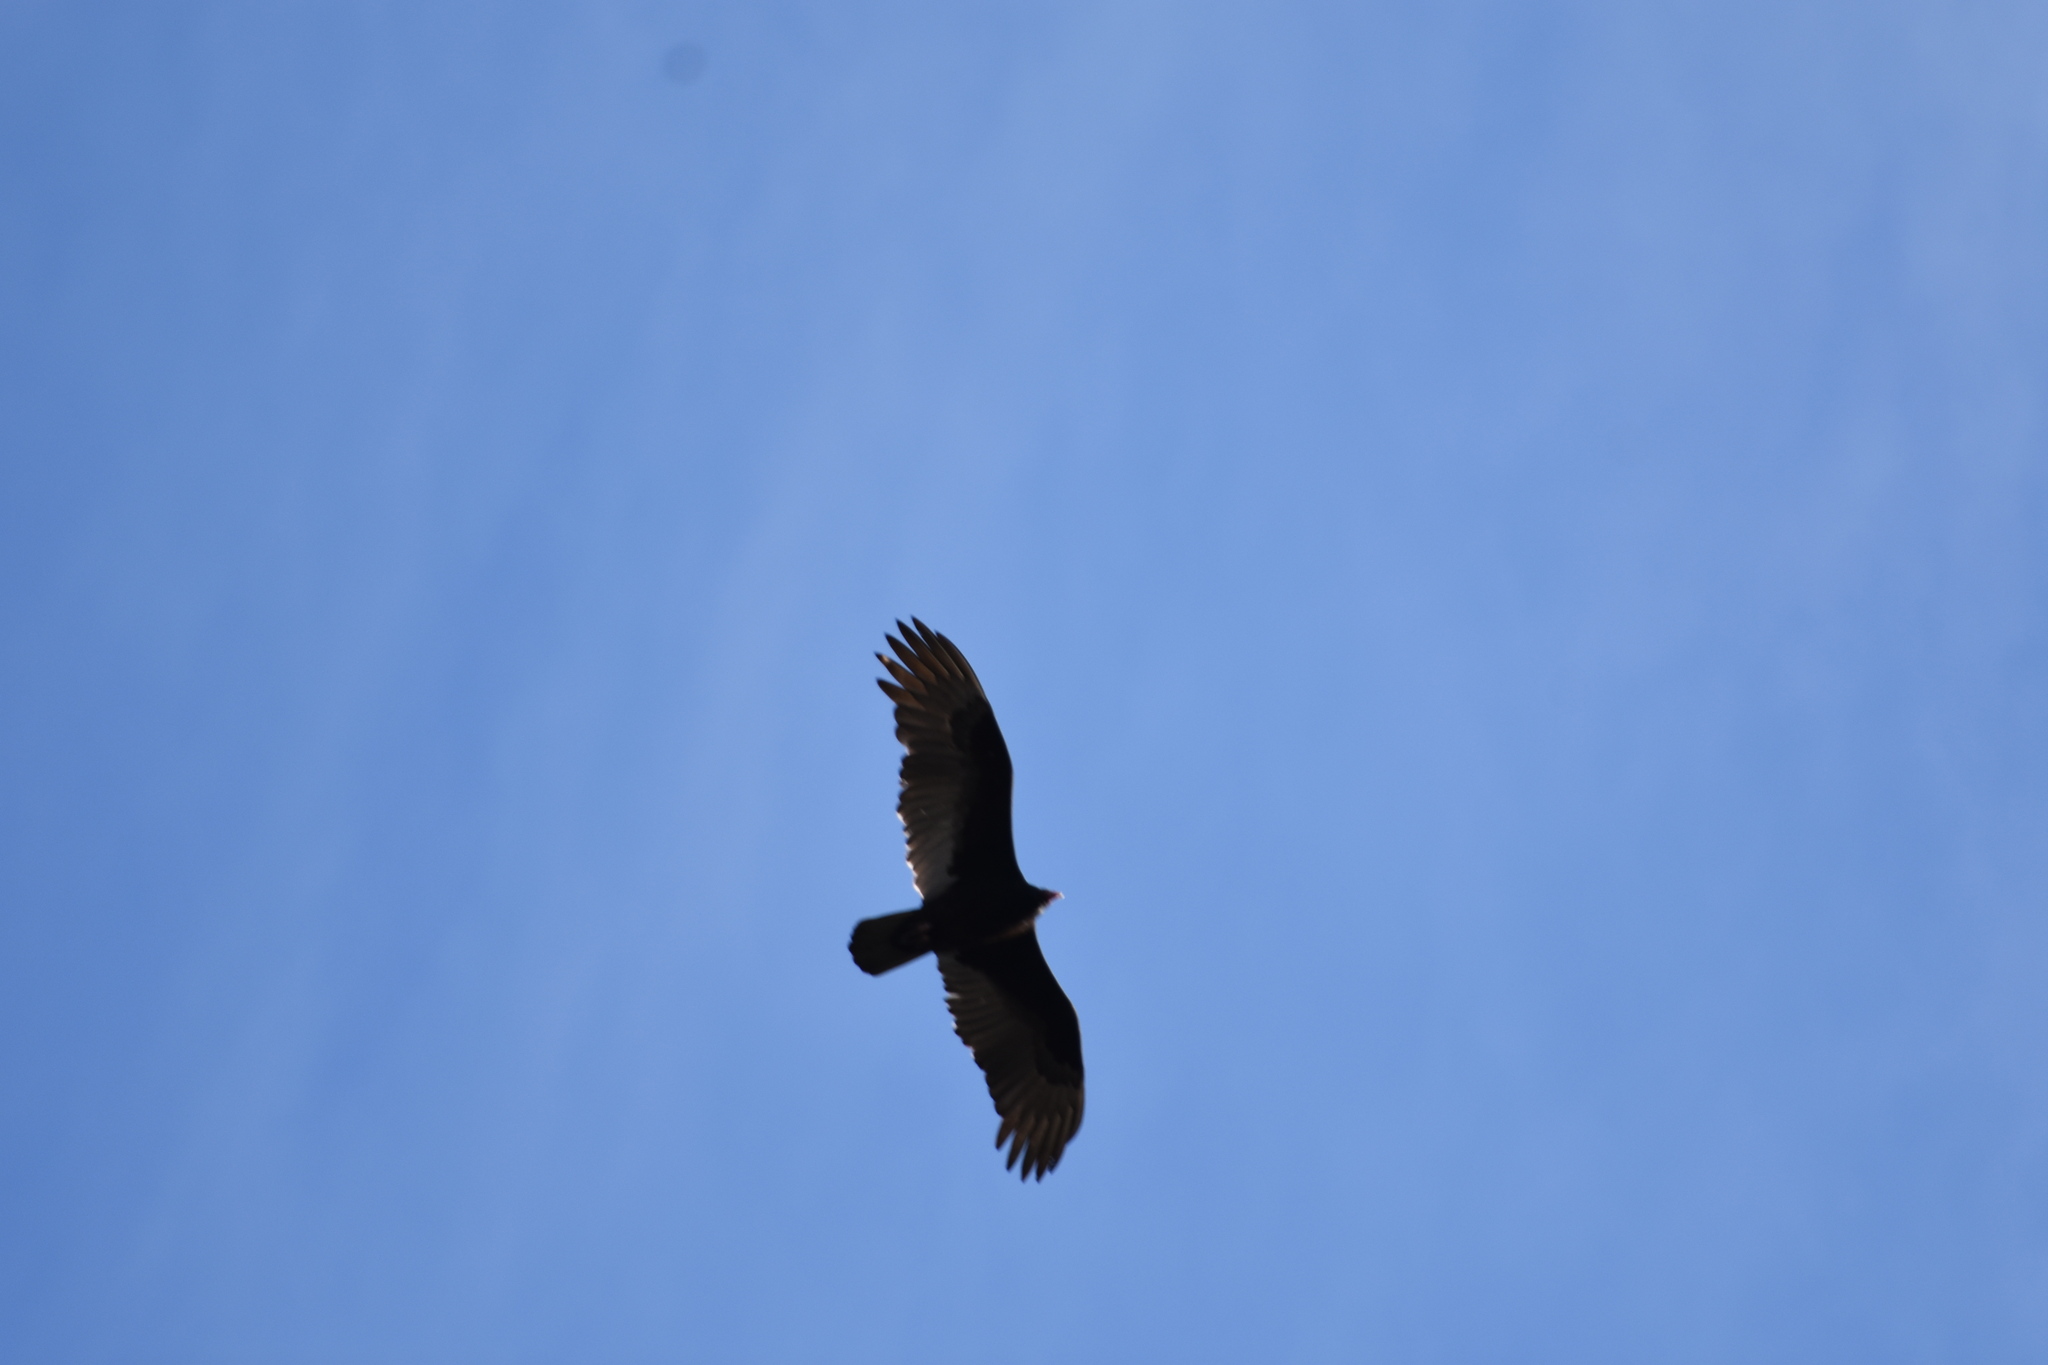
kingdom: Animalia
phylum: Chordata
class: Aves
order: Accipitriformes
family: Cathartidae
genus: Cathartes
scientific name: Cathartes aura
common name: Turkey vulture
